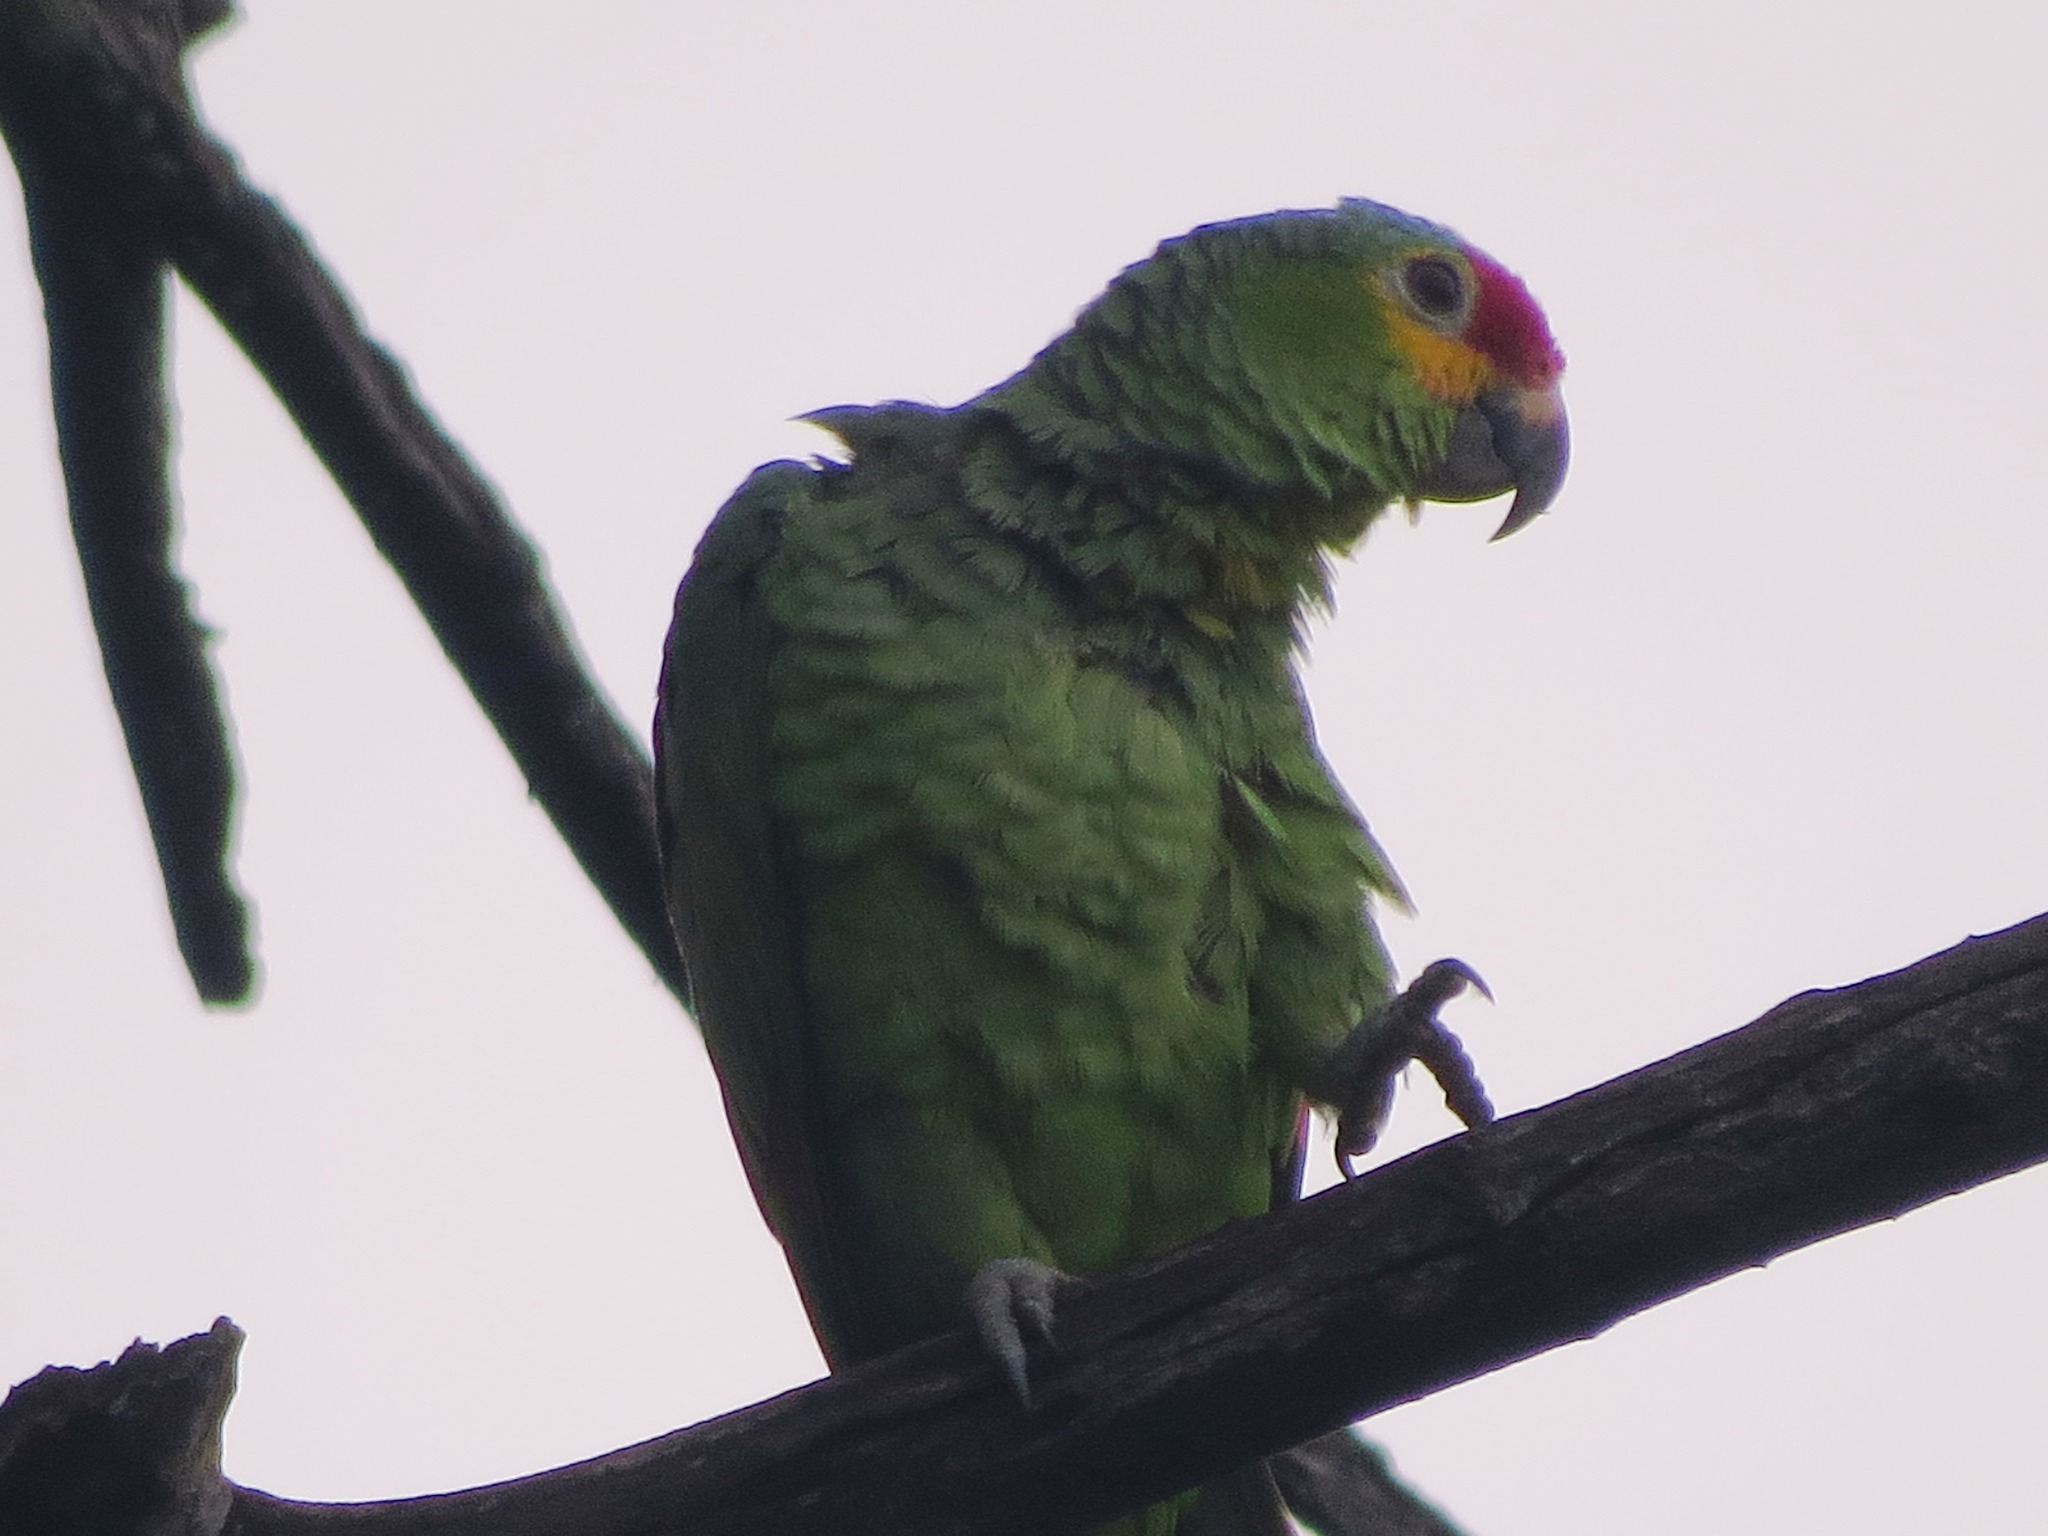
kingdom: Animalia
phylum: Chordata
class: Aves
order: Psittaciformes
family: Psittacidae
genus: Amazona
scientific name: Amazona autumnalis
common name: Red-lored amazon
